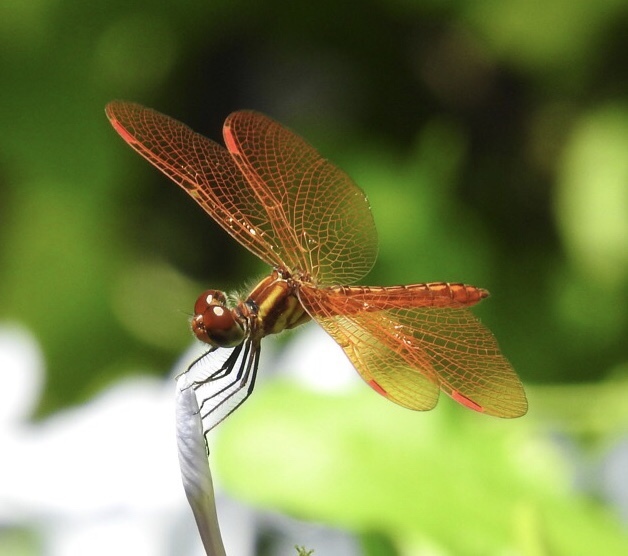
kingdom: Animalia
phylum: Arthropoda
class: Insecta
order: Odonata
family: Libellulidae
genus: Perithemis
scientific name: Perithemis domitia
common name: Slough amberwing
